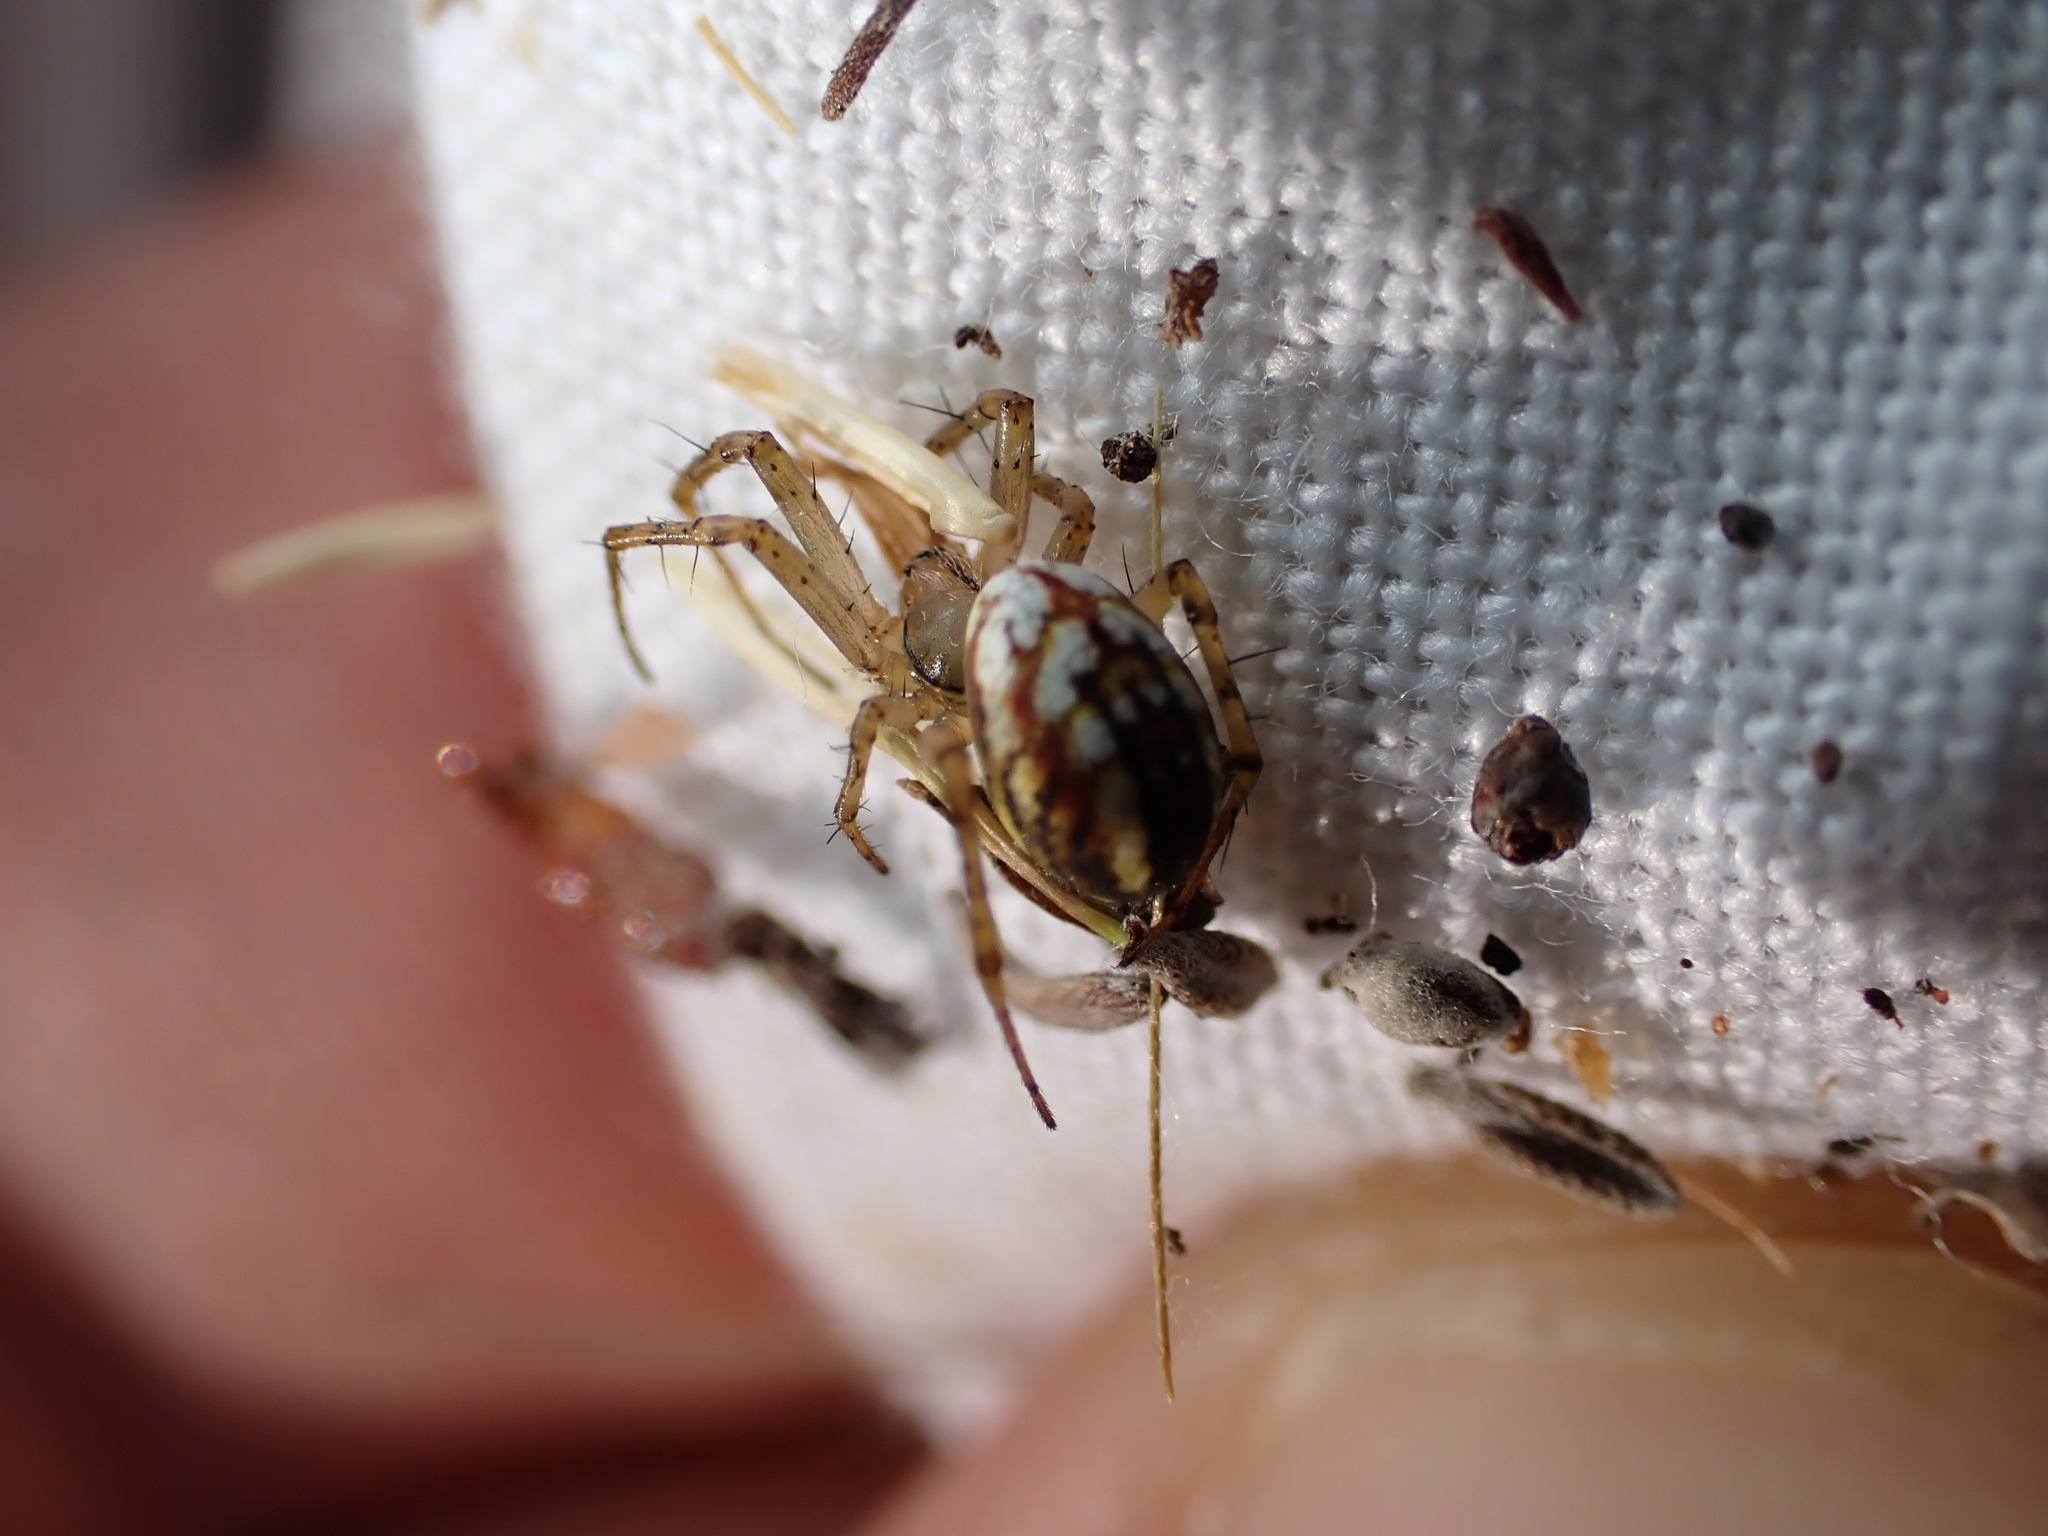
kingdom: Animalia
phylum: Arthropoda
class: Arachnida
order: Araneae
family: Araneidae
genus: Mangora
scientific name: Mangora acalypha
